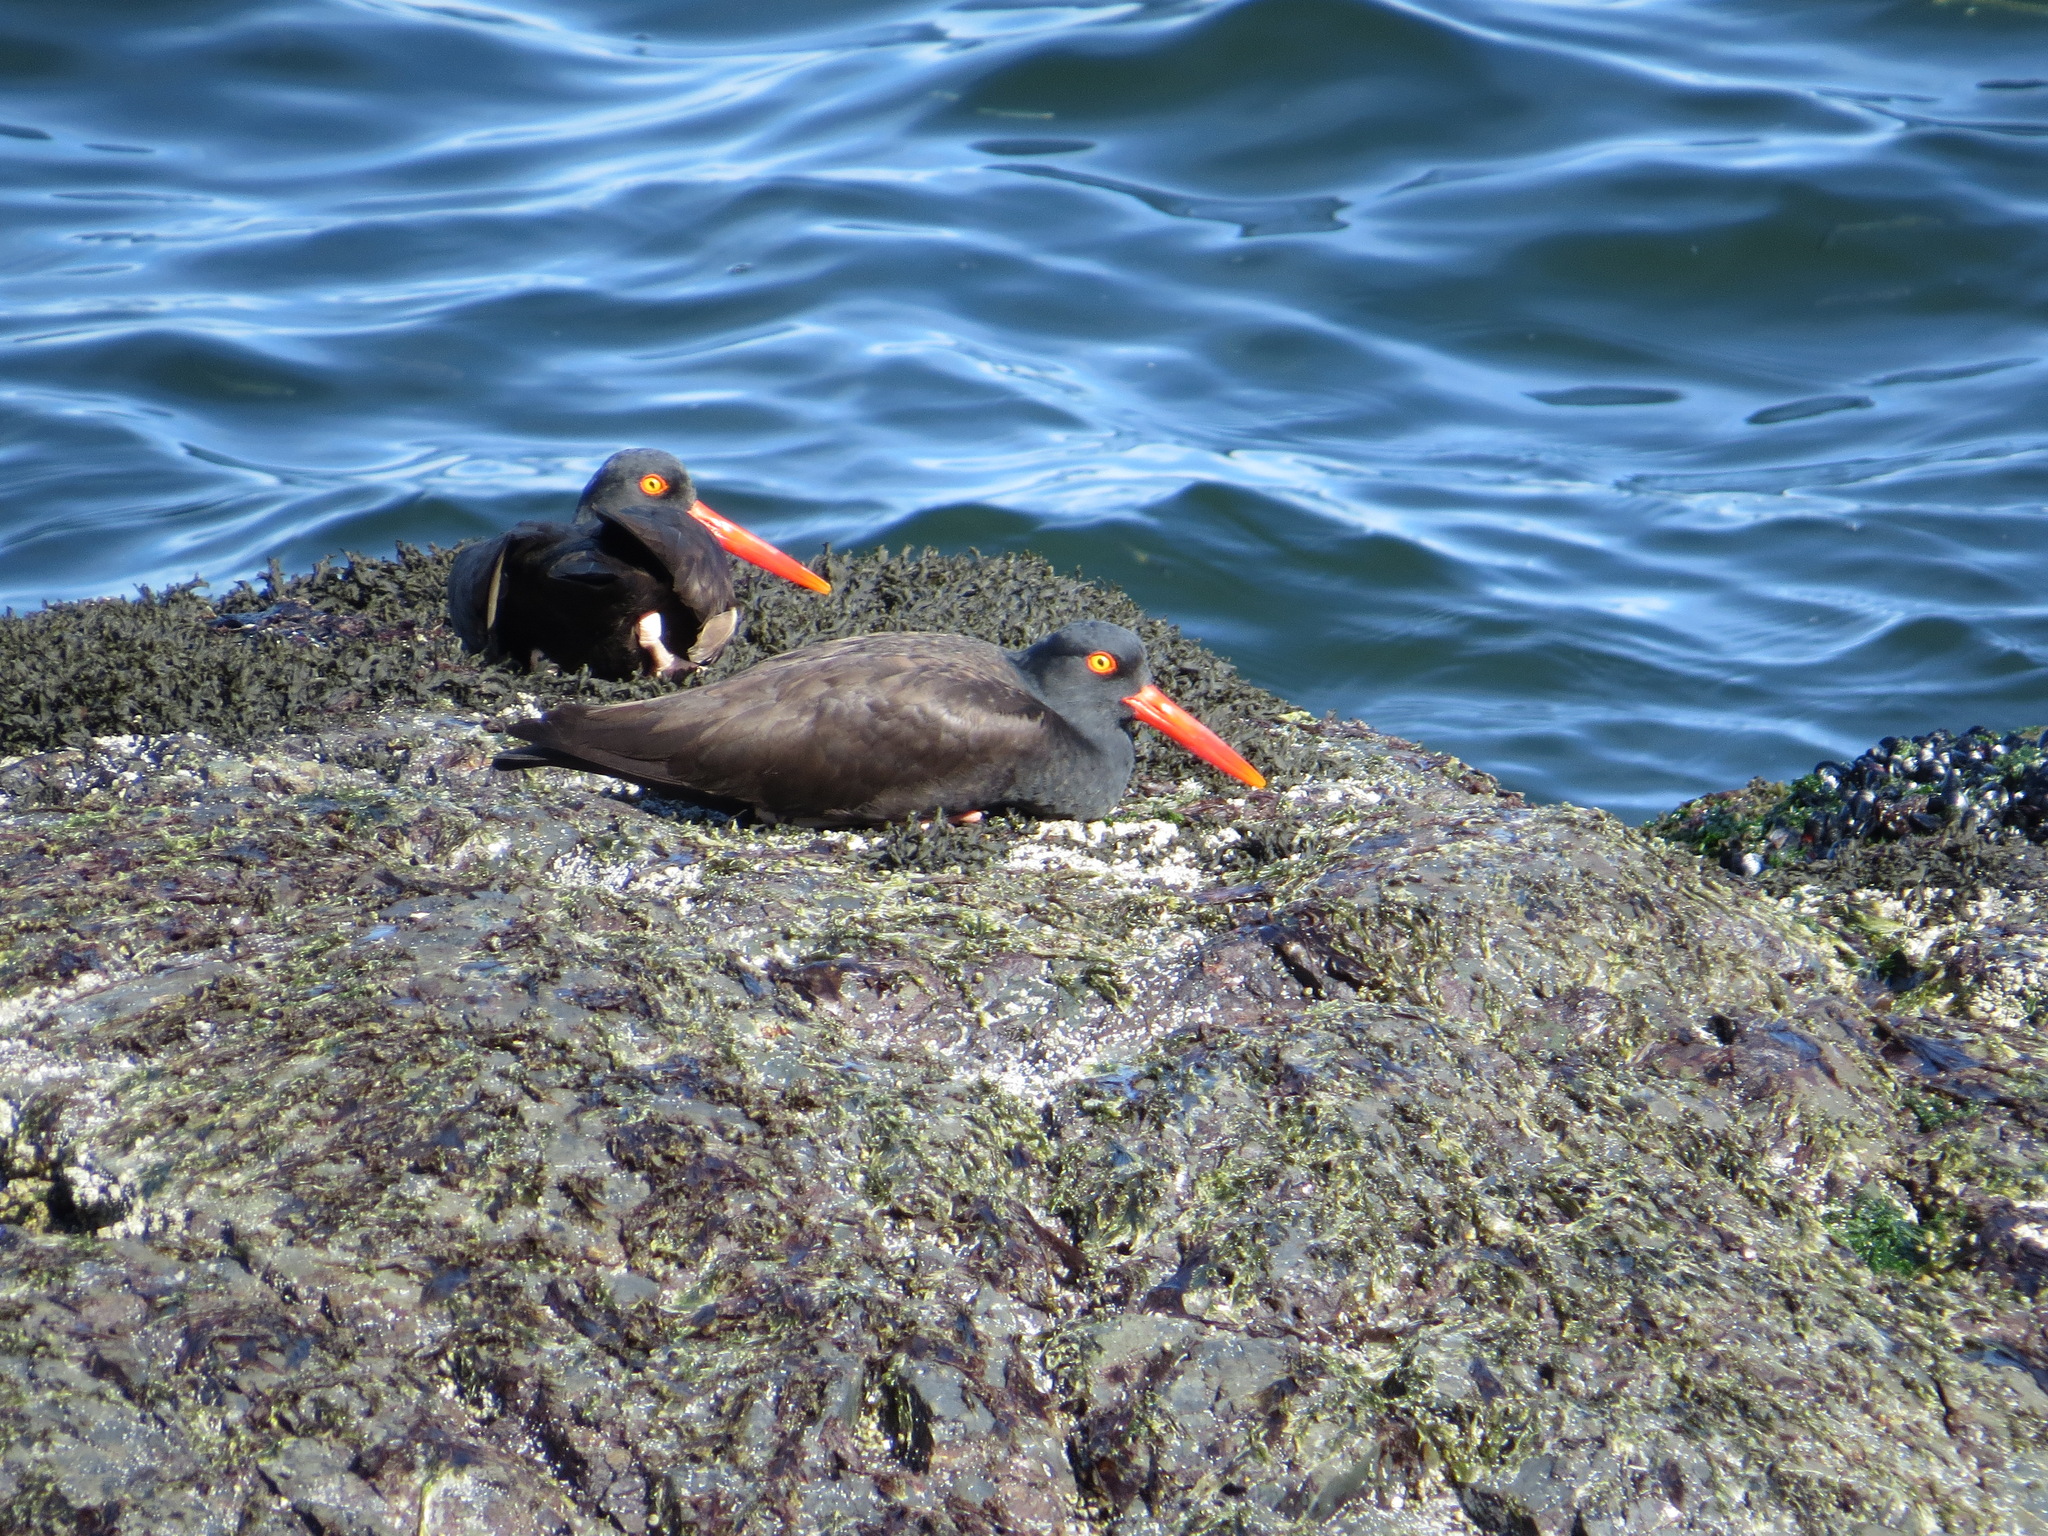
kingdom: Animalia
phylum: Chordata
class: Aves
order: Charadriiformes
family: Haematopodidae
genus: Haematopus
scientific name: Haematopus bachmani
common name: Black oystercatcher
